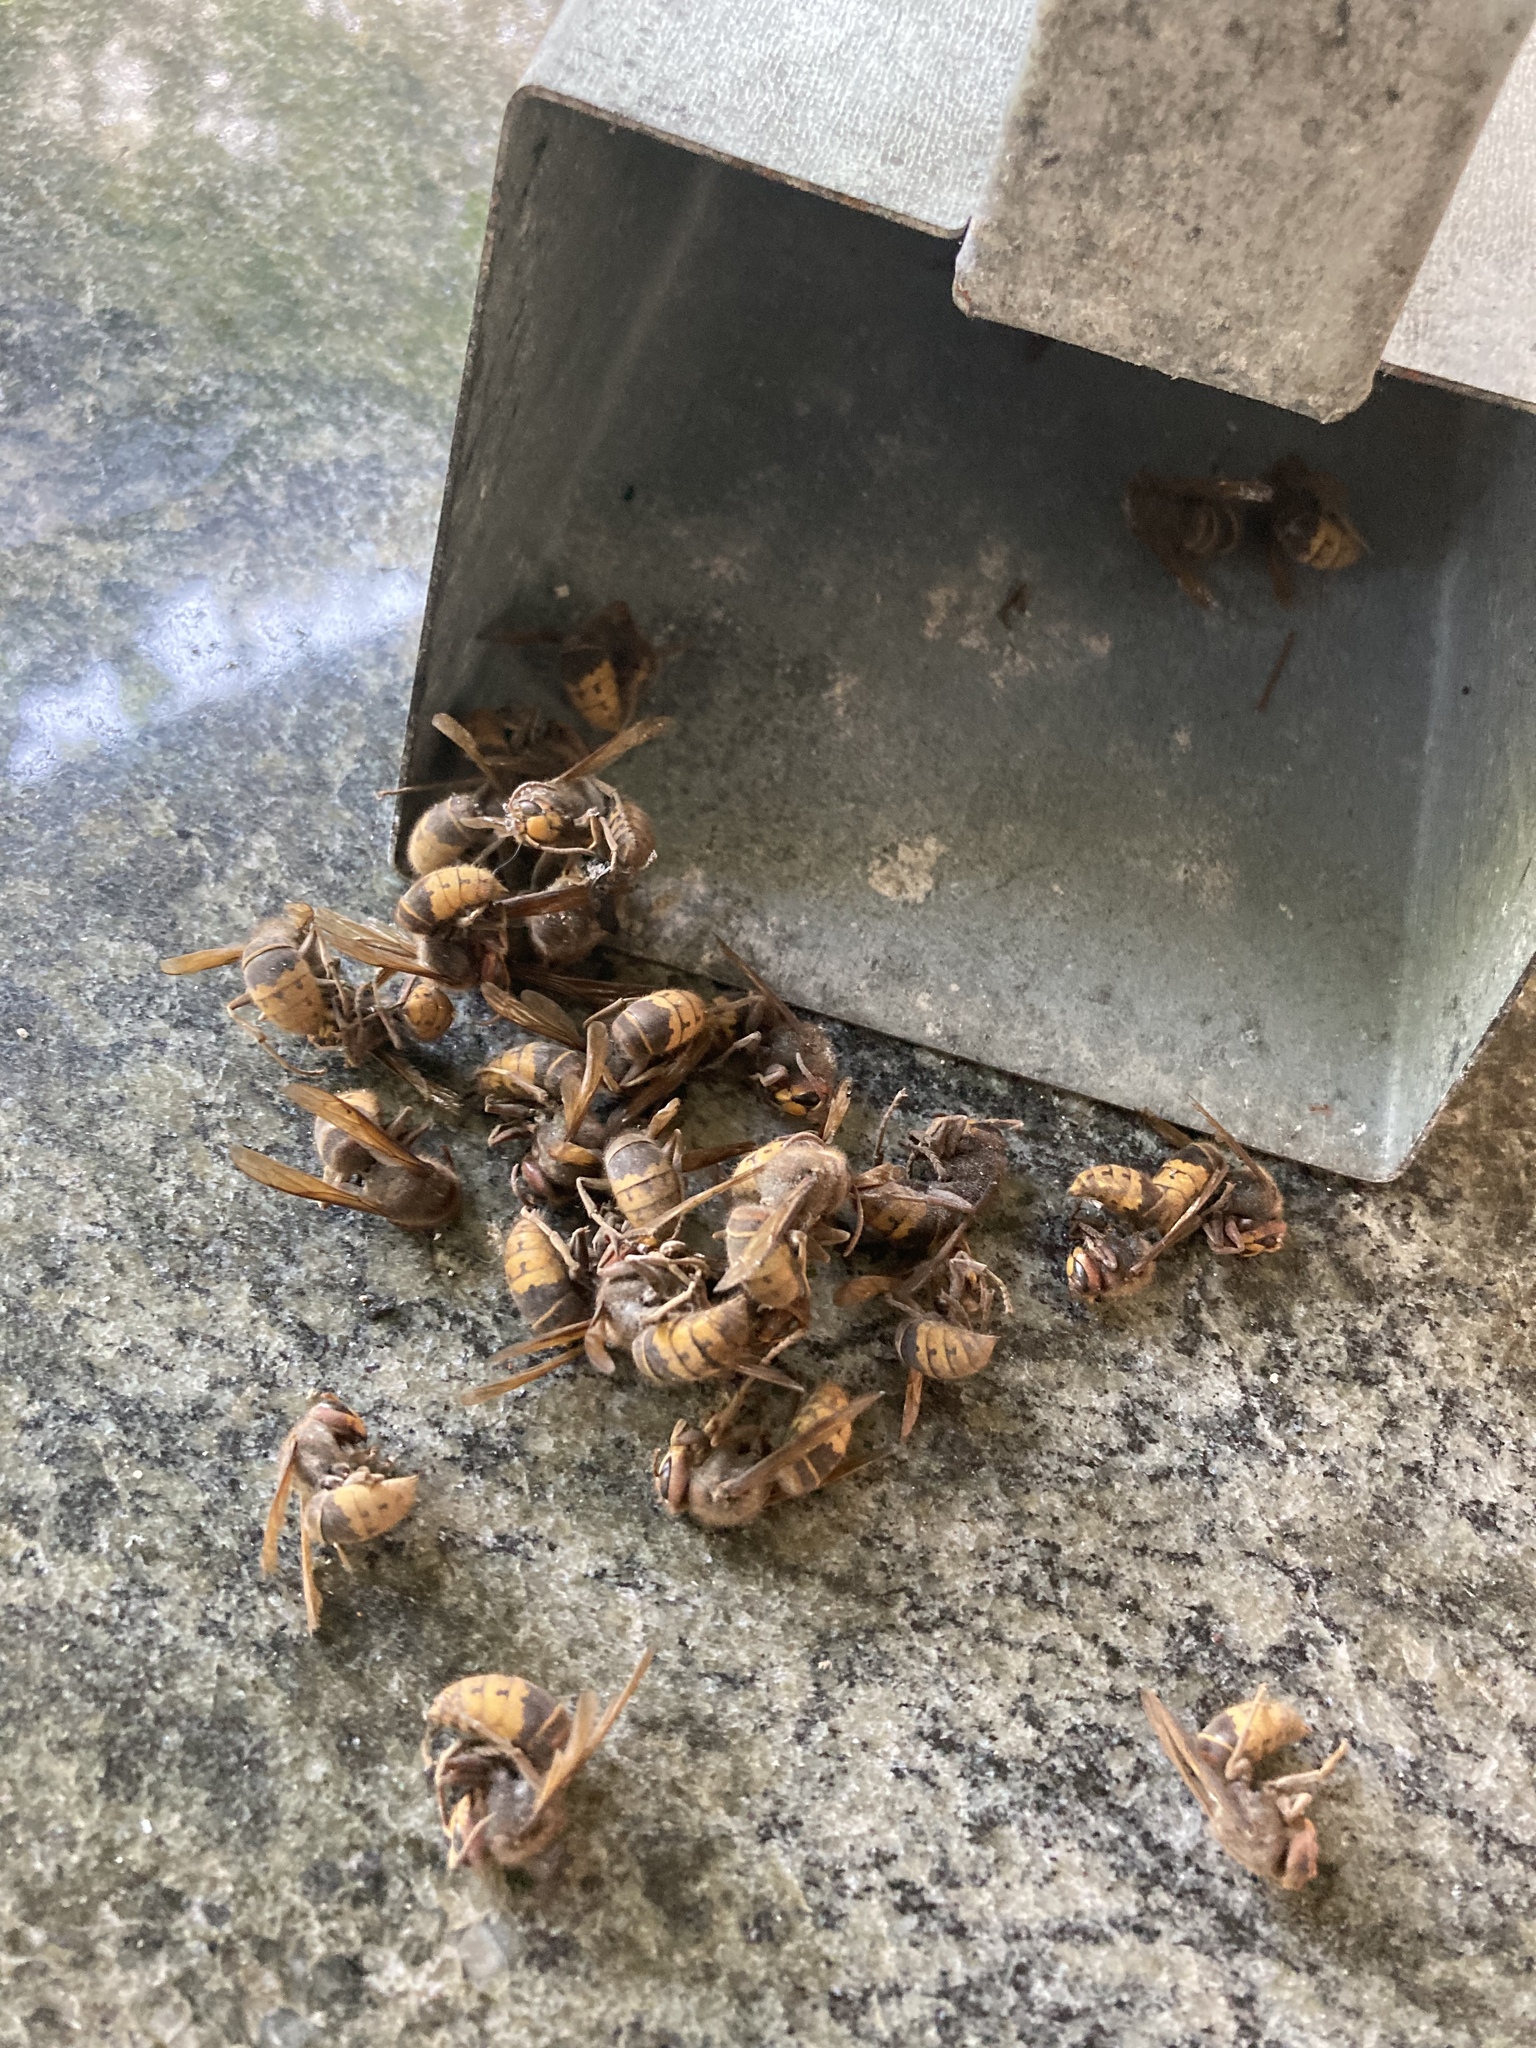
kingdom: Animalia
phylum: Arthropoda
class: Insecta
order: Hymenoptera
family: Vespidae
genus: Vespa
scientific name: Vespa crabro
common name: Hornet
